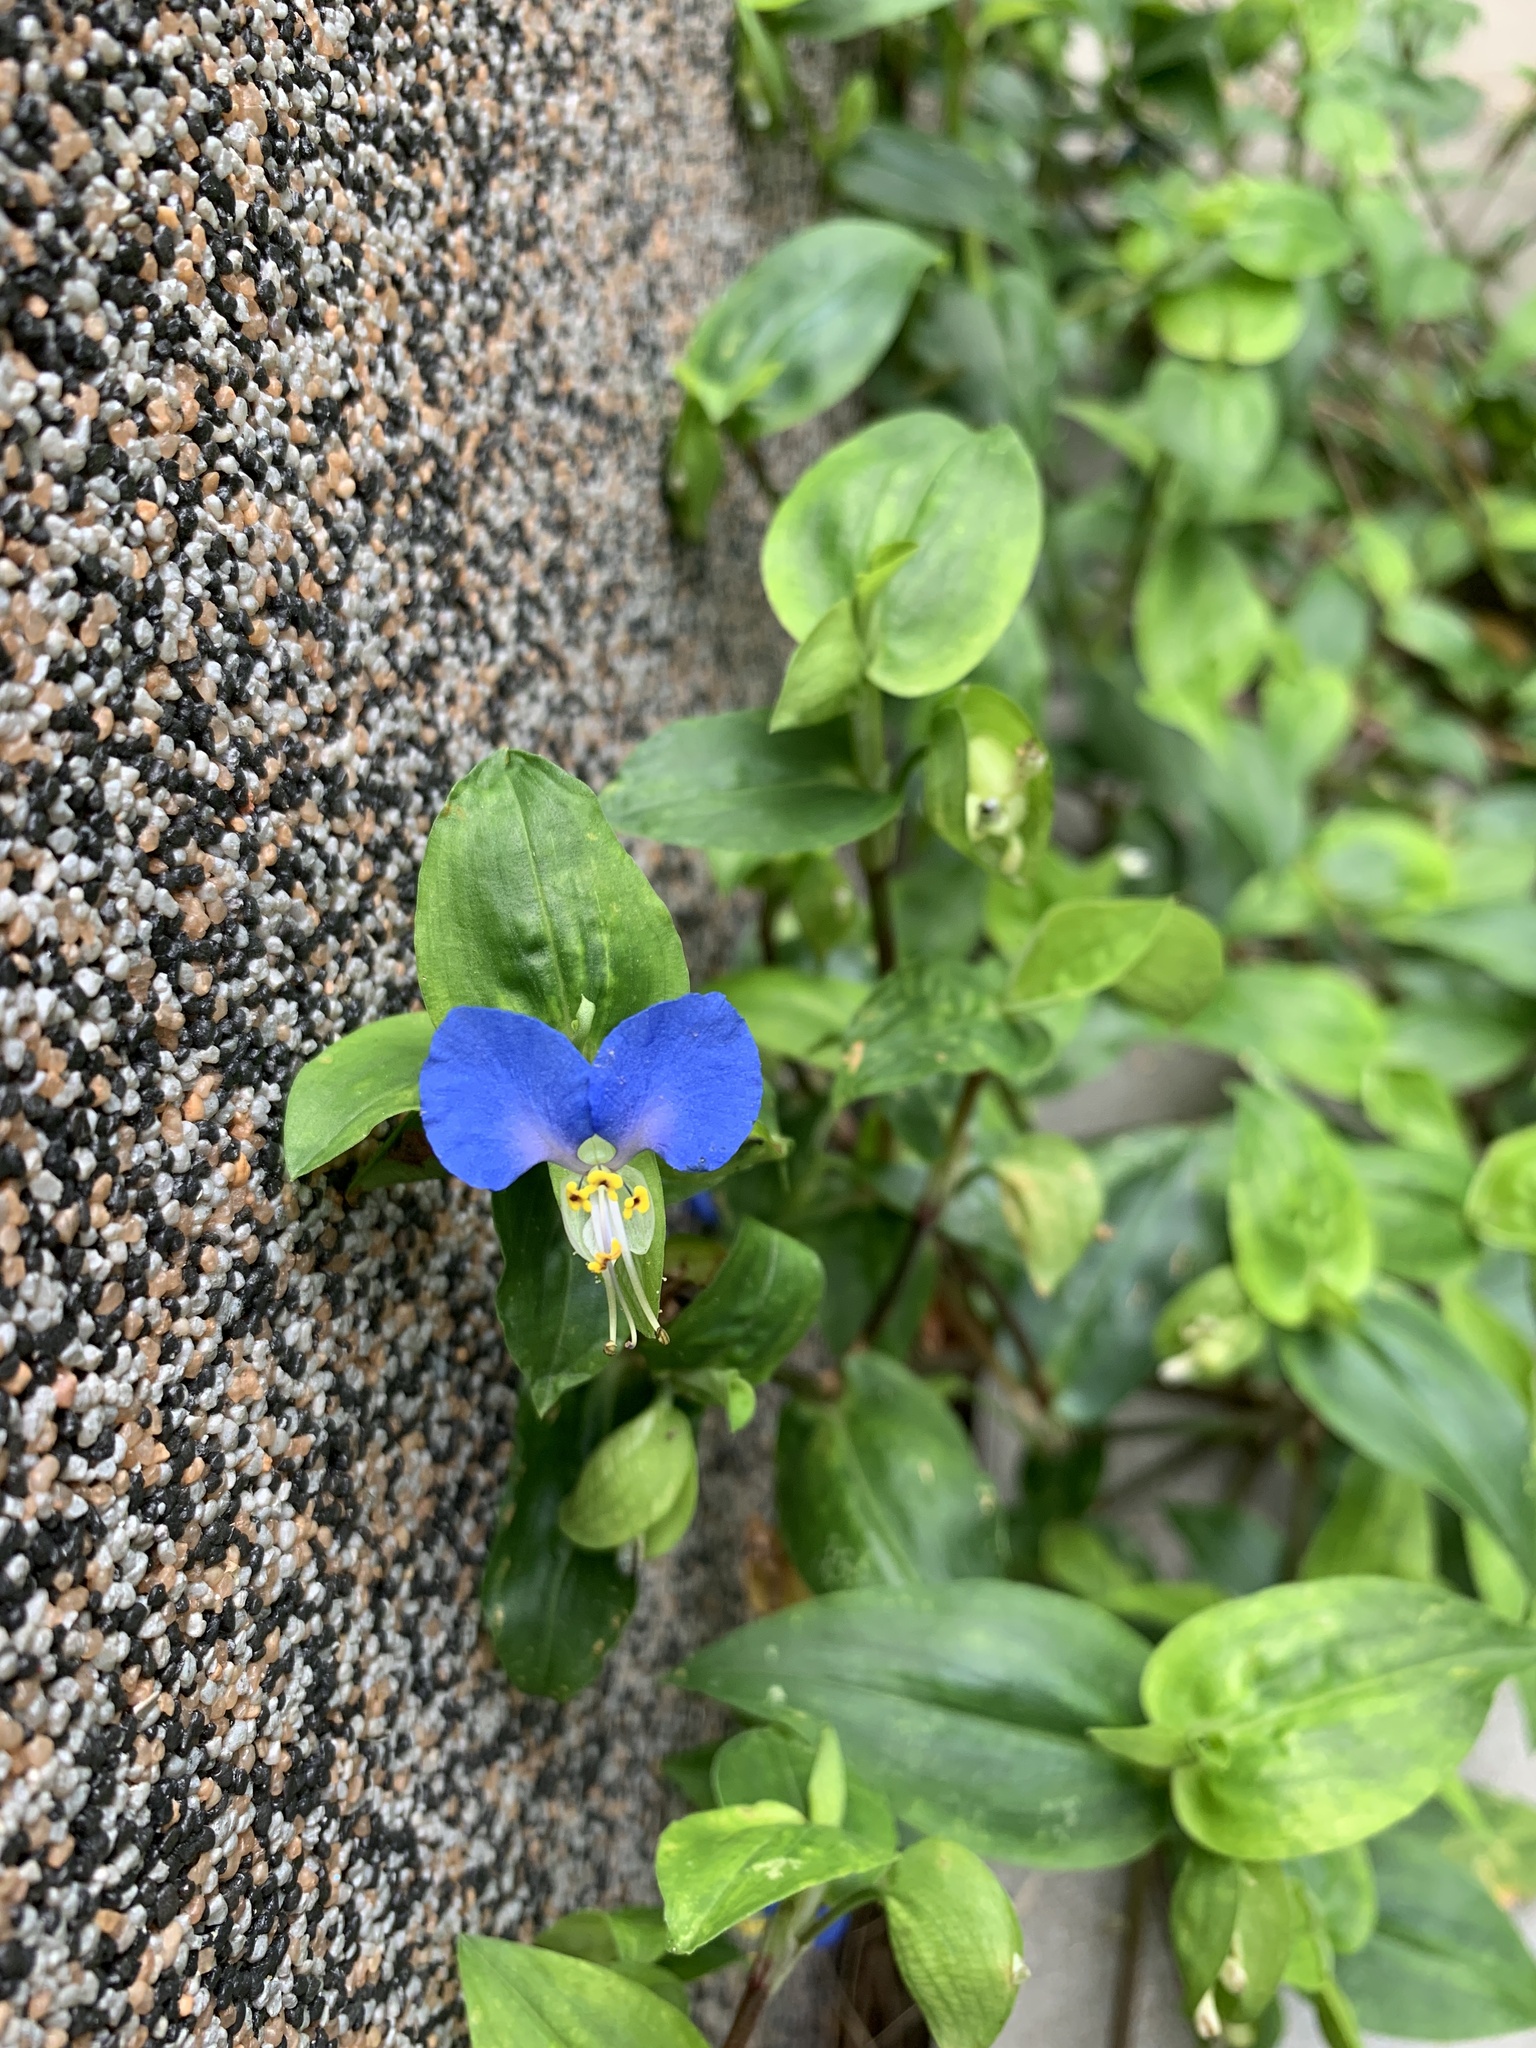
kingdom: Plantae
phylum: Tracheophyta
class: Liliopsida
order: Commelinales
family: Commelinaceae
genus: Commelina
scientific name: Commelina communis
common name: Asiatic dayflower
